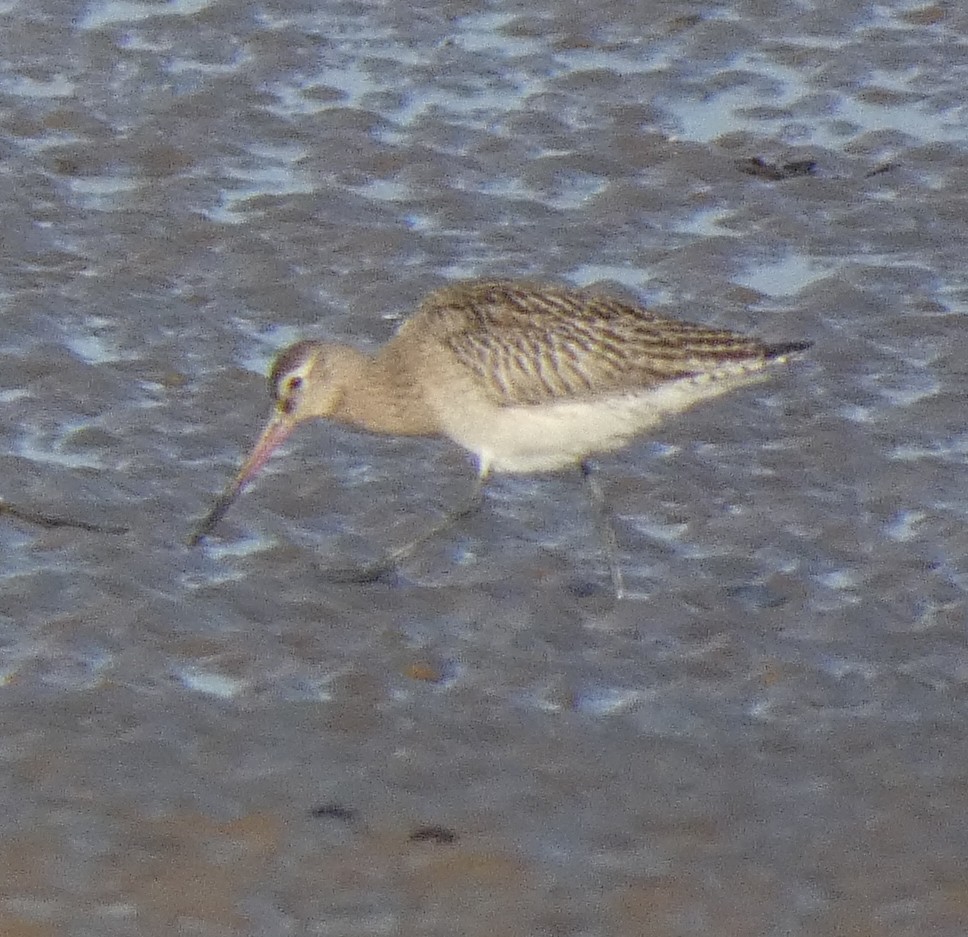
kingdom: Animalia
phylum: Chordata
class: Aves
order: Charadriiformes
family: Scolopacidae
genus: Limosa
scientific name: Limosa lapponica
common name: Bar-tailed godwit
